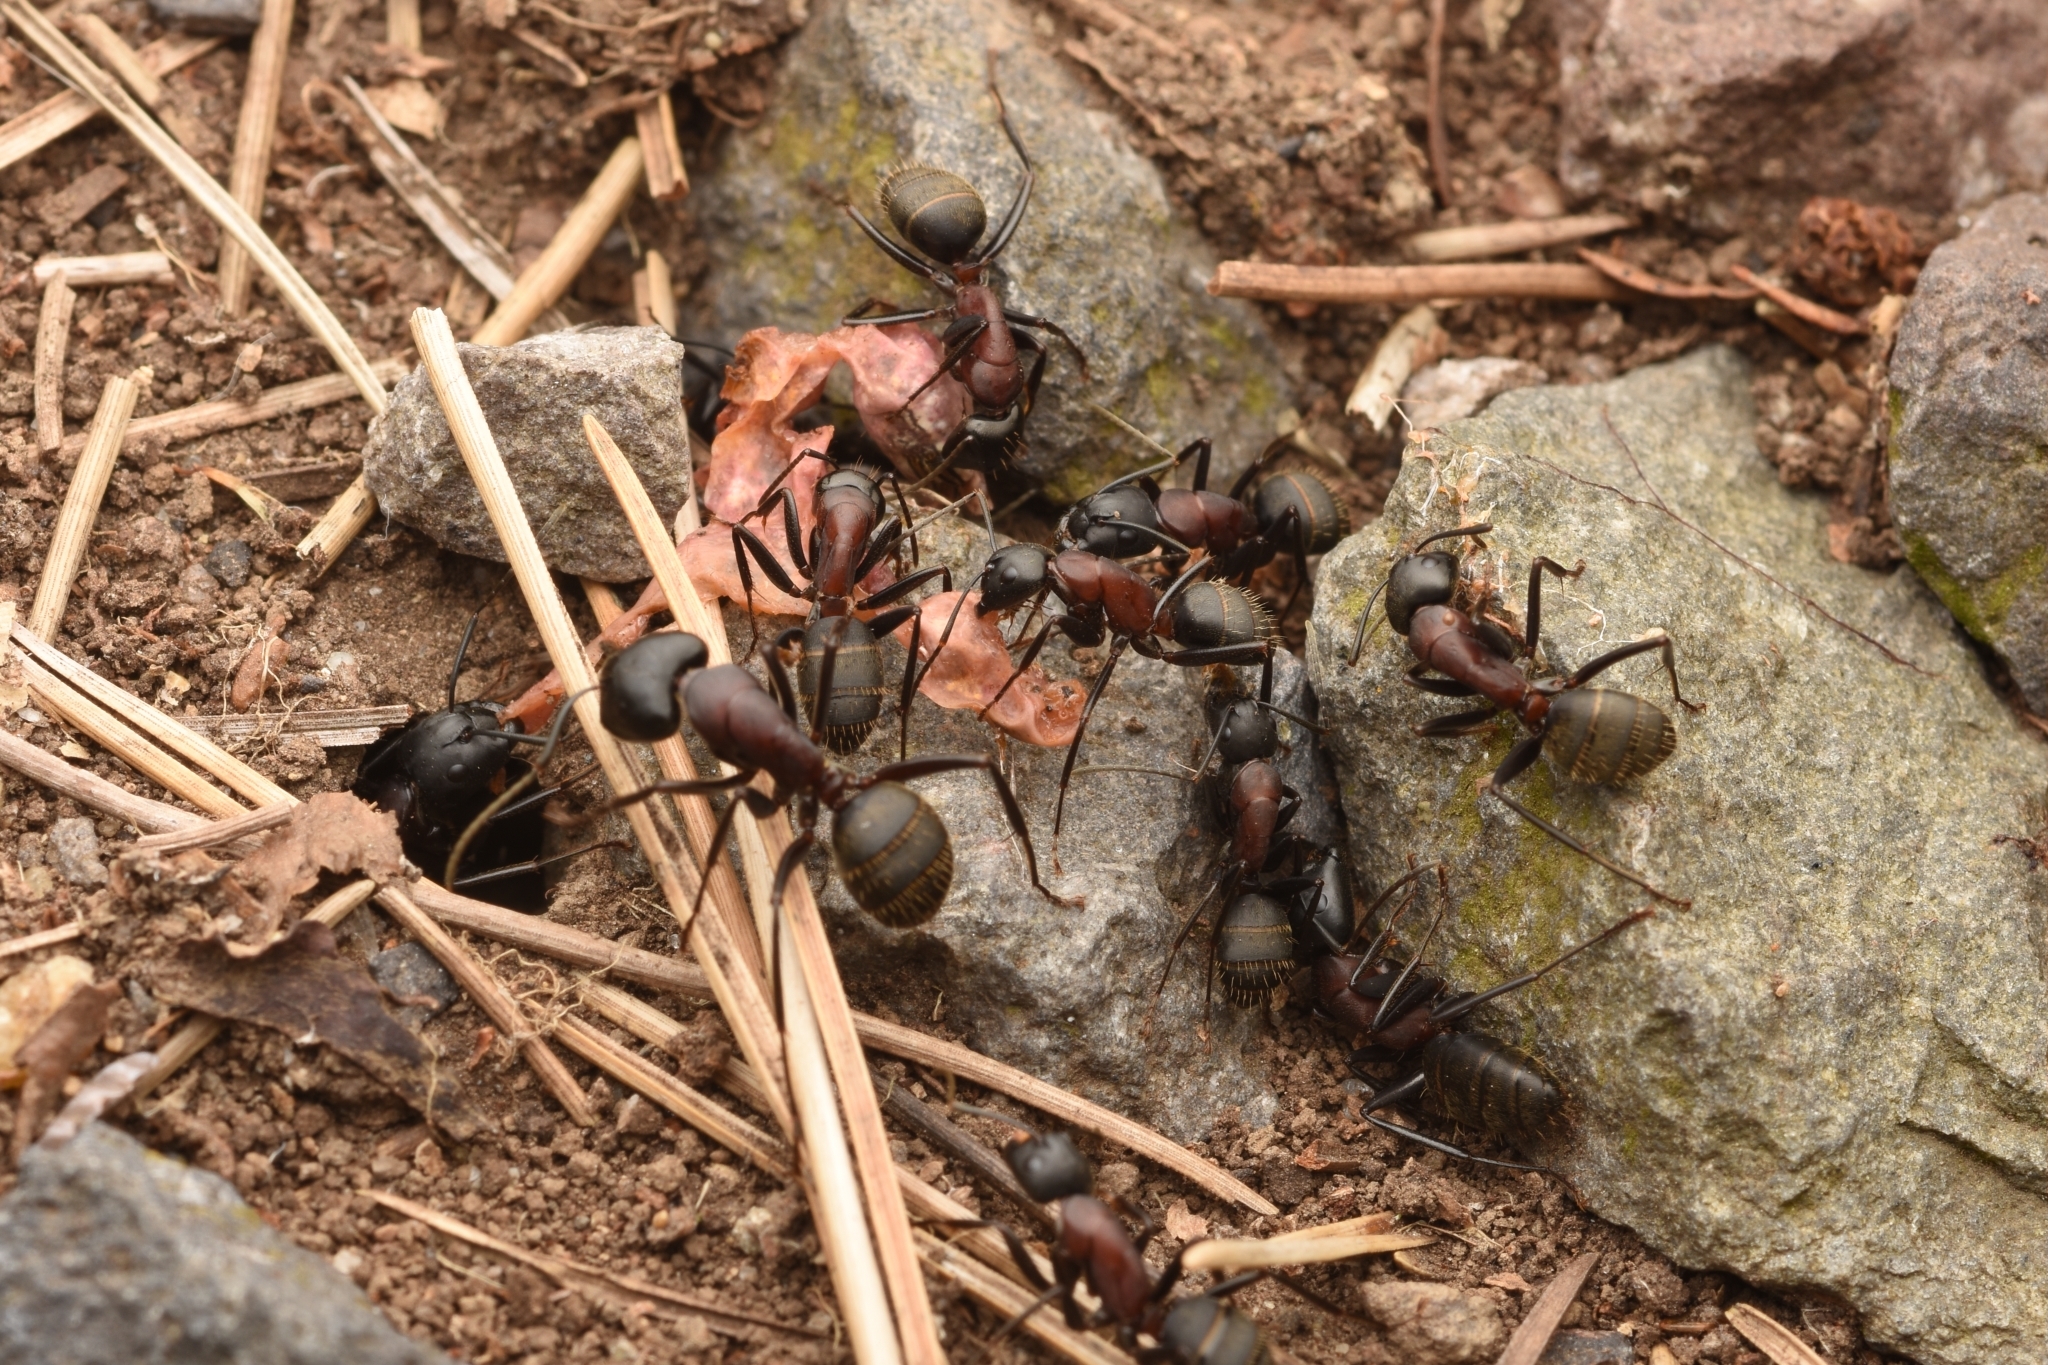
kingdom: Animalia
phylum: Arthropoda
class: Insecta
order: Hymenoptera
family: Formicidae
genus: Camponotus
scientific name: Camponotus atrox
